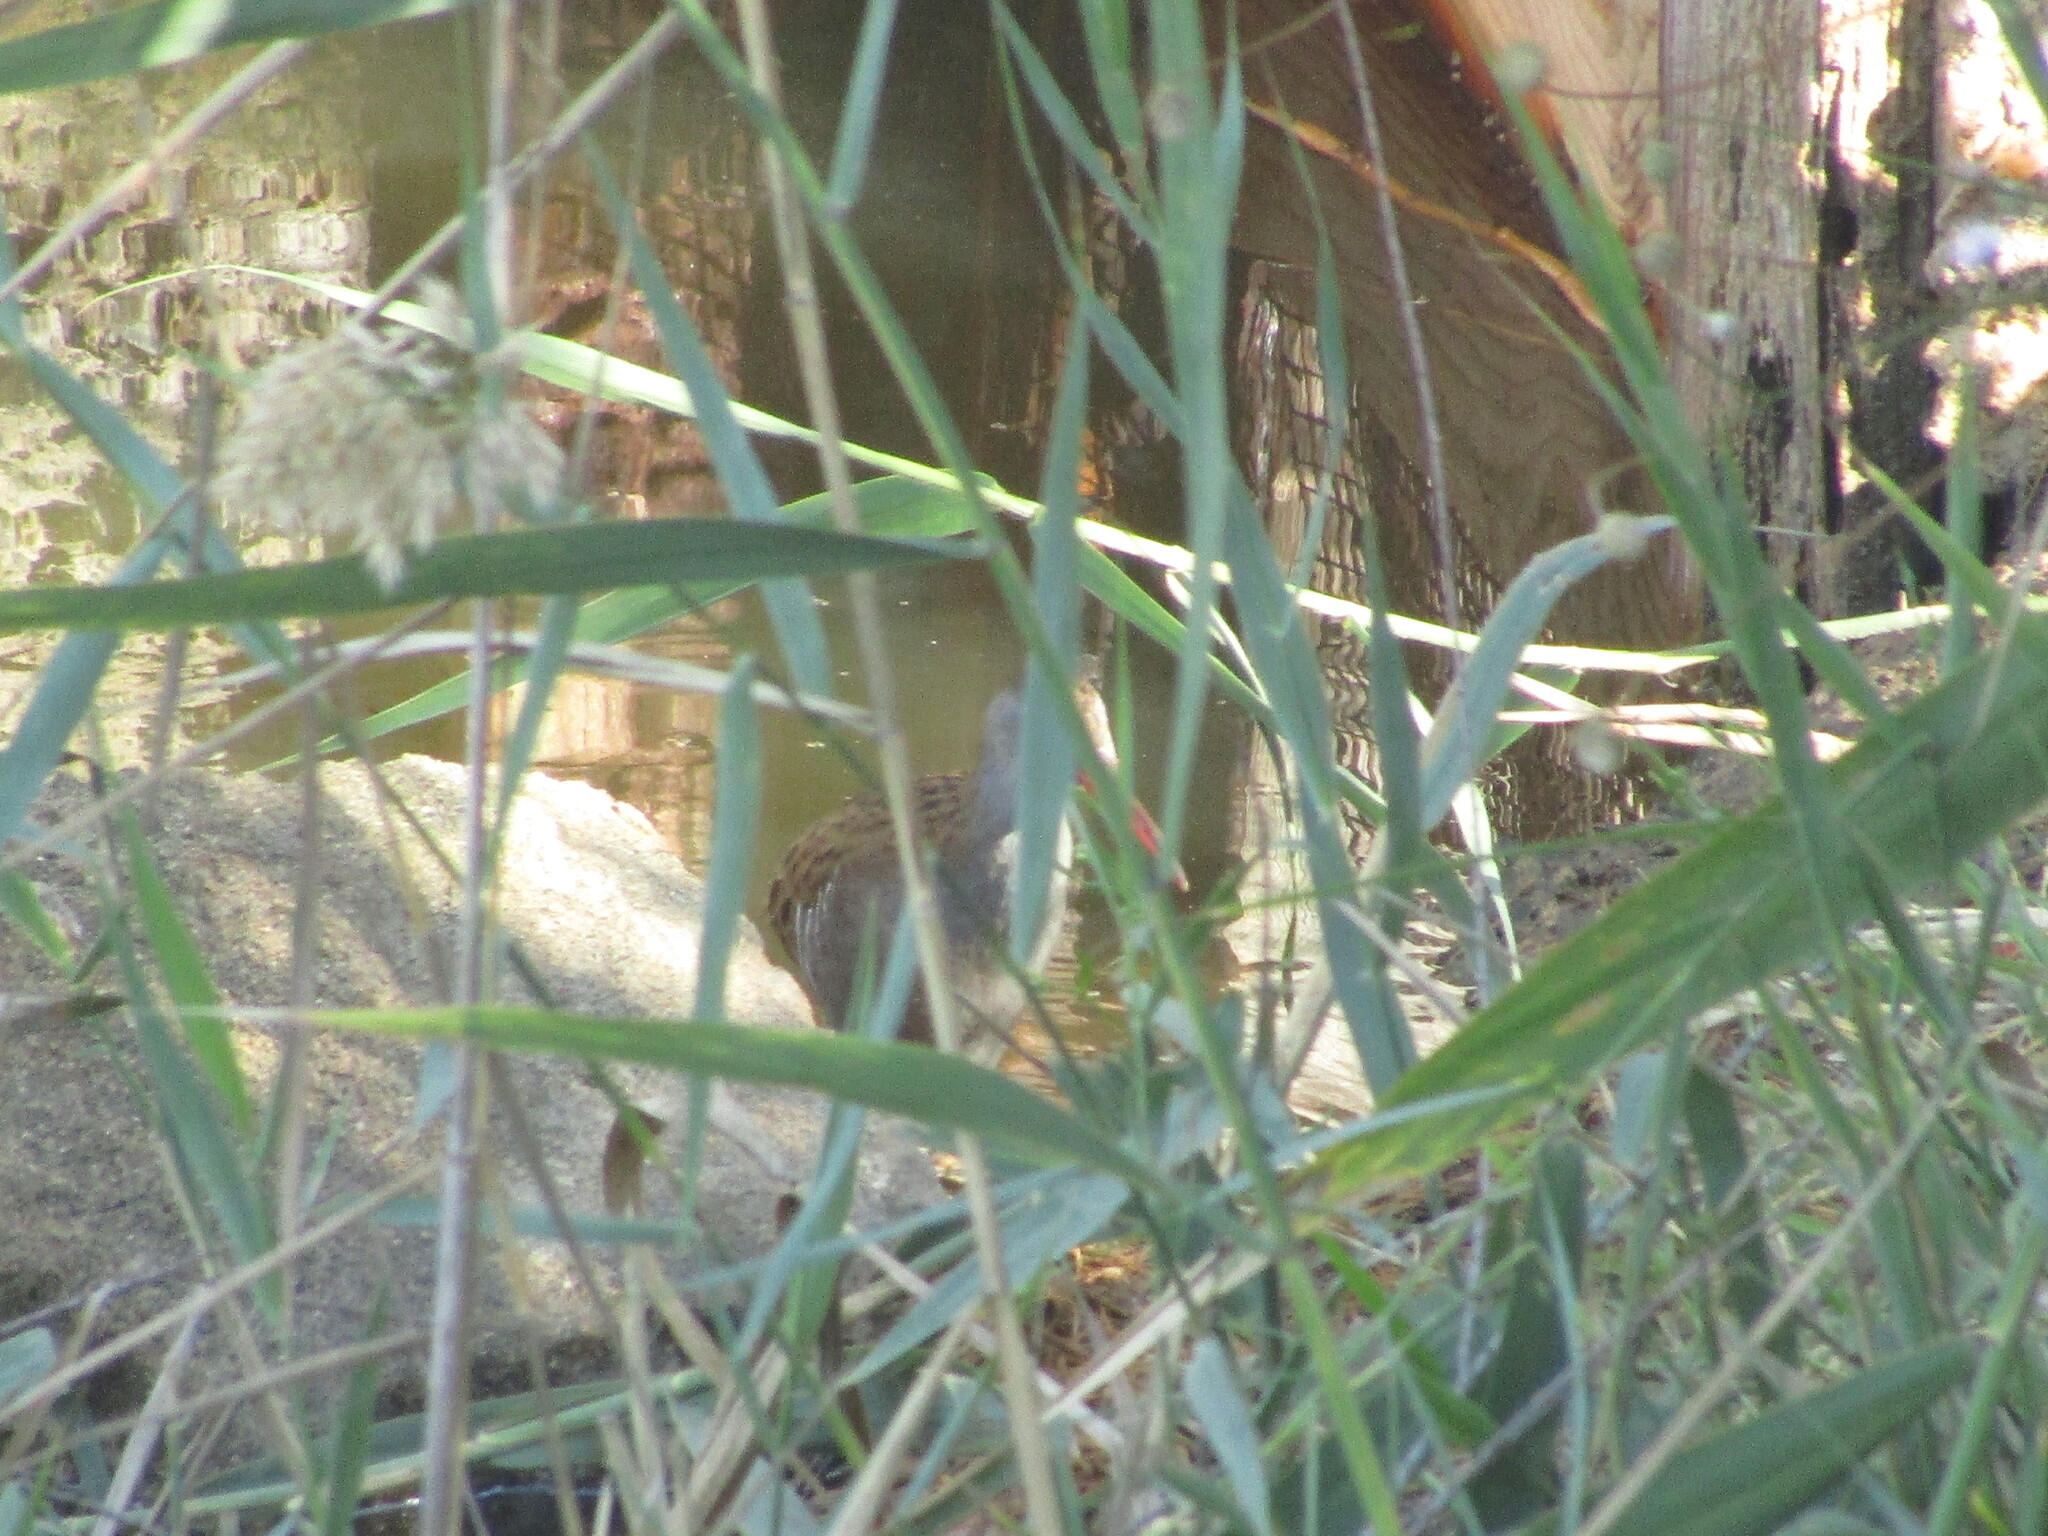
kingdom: Animalia
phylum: Chordata
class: Aves
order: Gruiformes
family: Rallidae
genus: Rallus
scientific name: Rallus aquaticus
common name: Water rail
